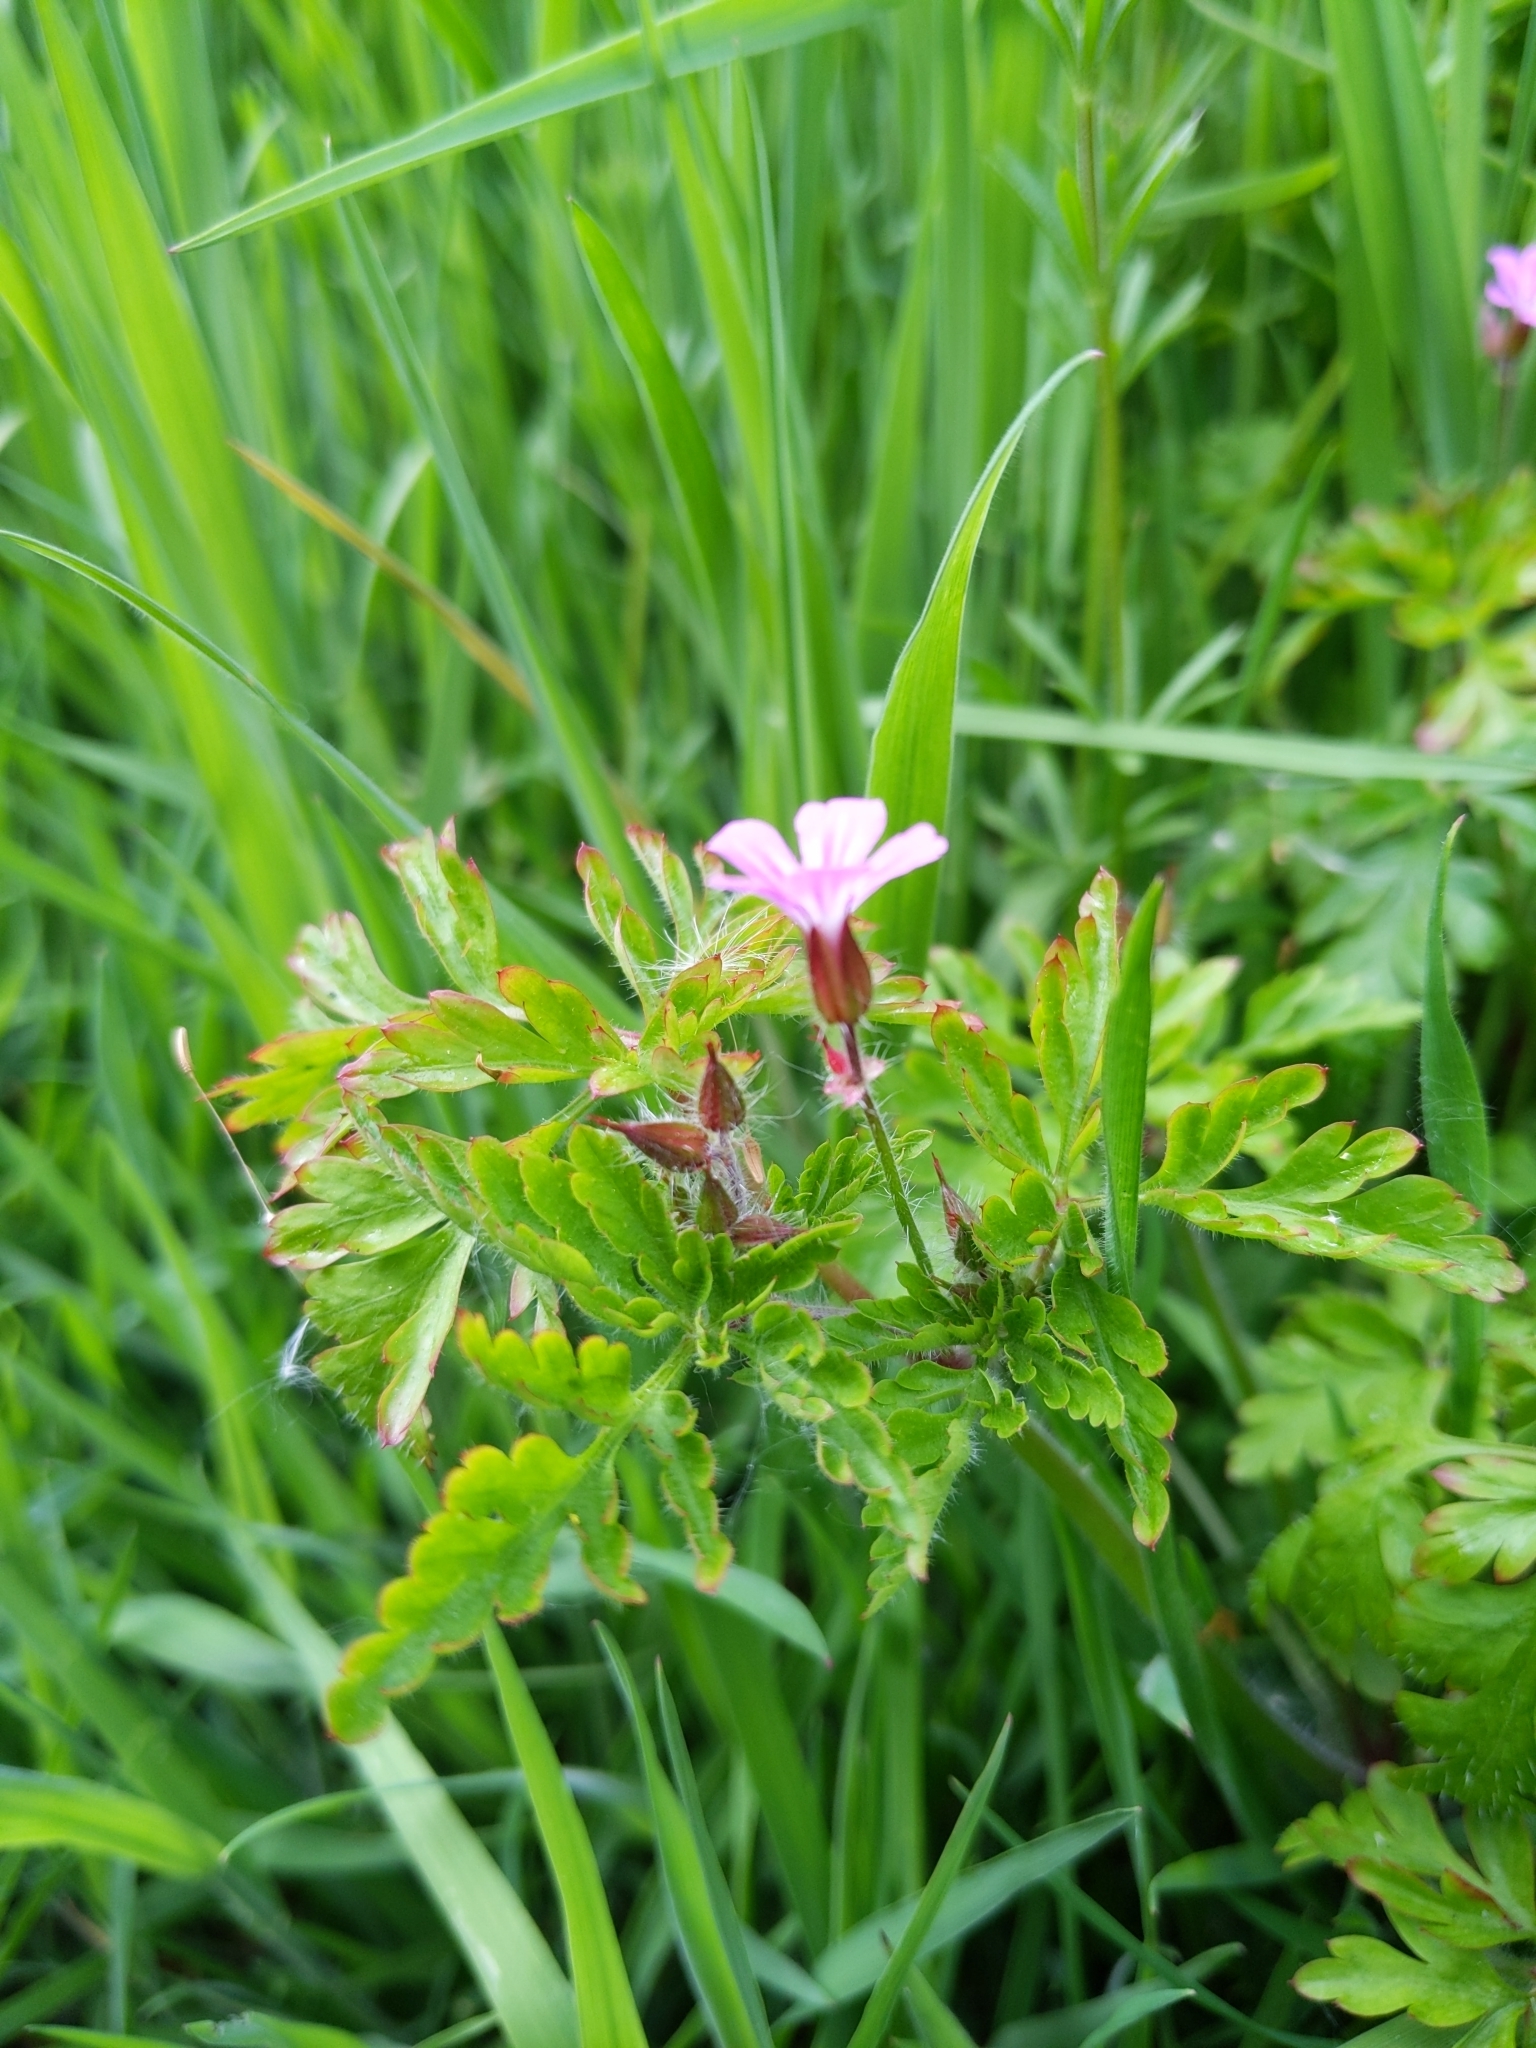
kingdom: Plantae
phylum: Tracheophyta
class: Magnoliopsida
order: Geraniales
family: Geraniaceae
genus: Geranium
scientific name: Geranium robertianum
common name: Herb-robert
